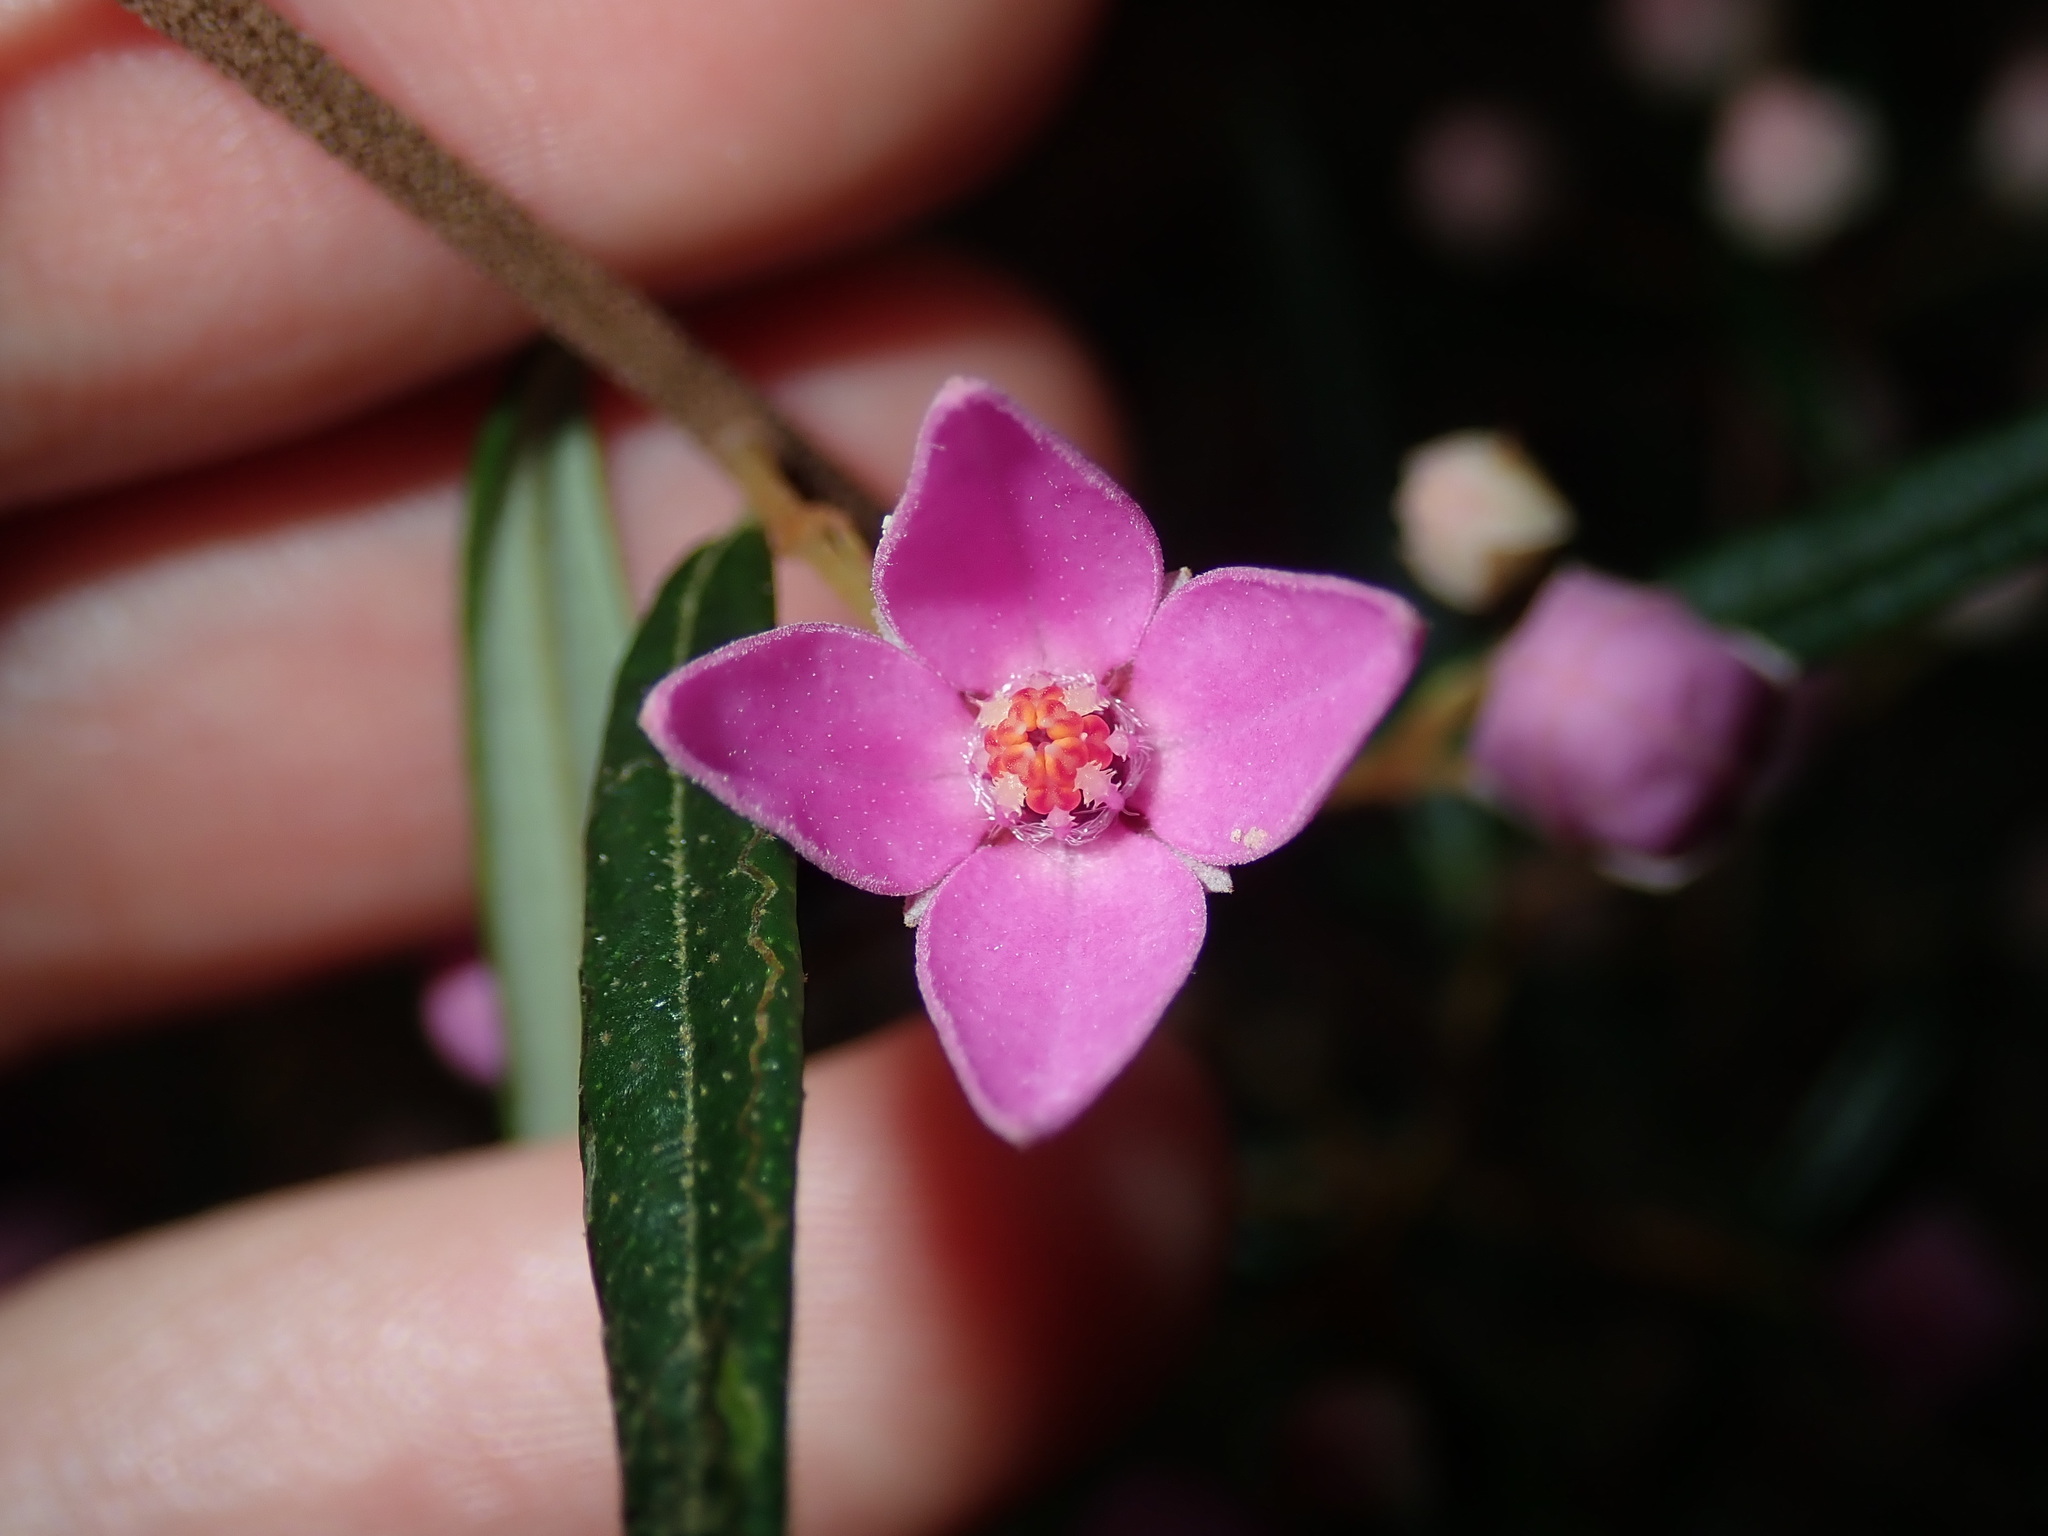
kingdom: Plantae
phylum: Tracheophyta
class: Magnoliopsida
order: Sapindales
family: Rutaceae
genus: Boronia
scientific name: Boronia ledifolia
